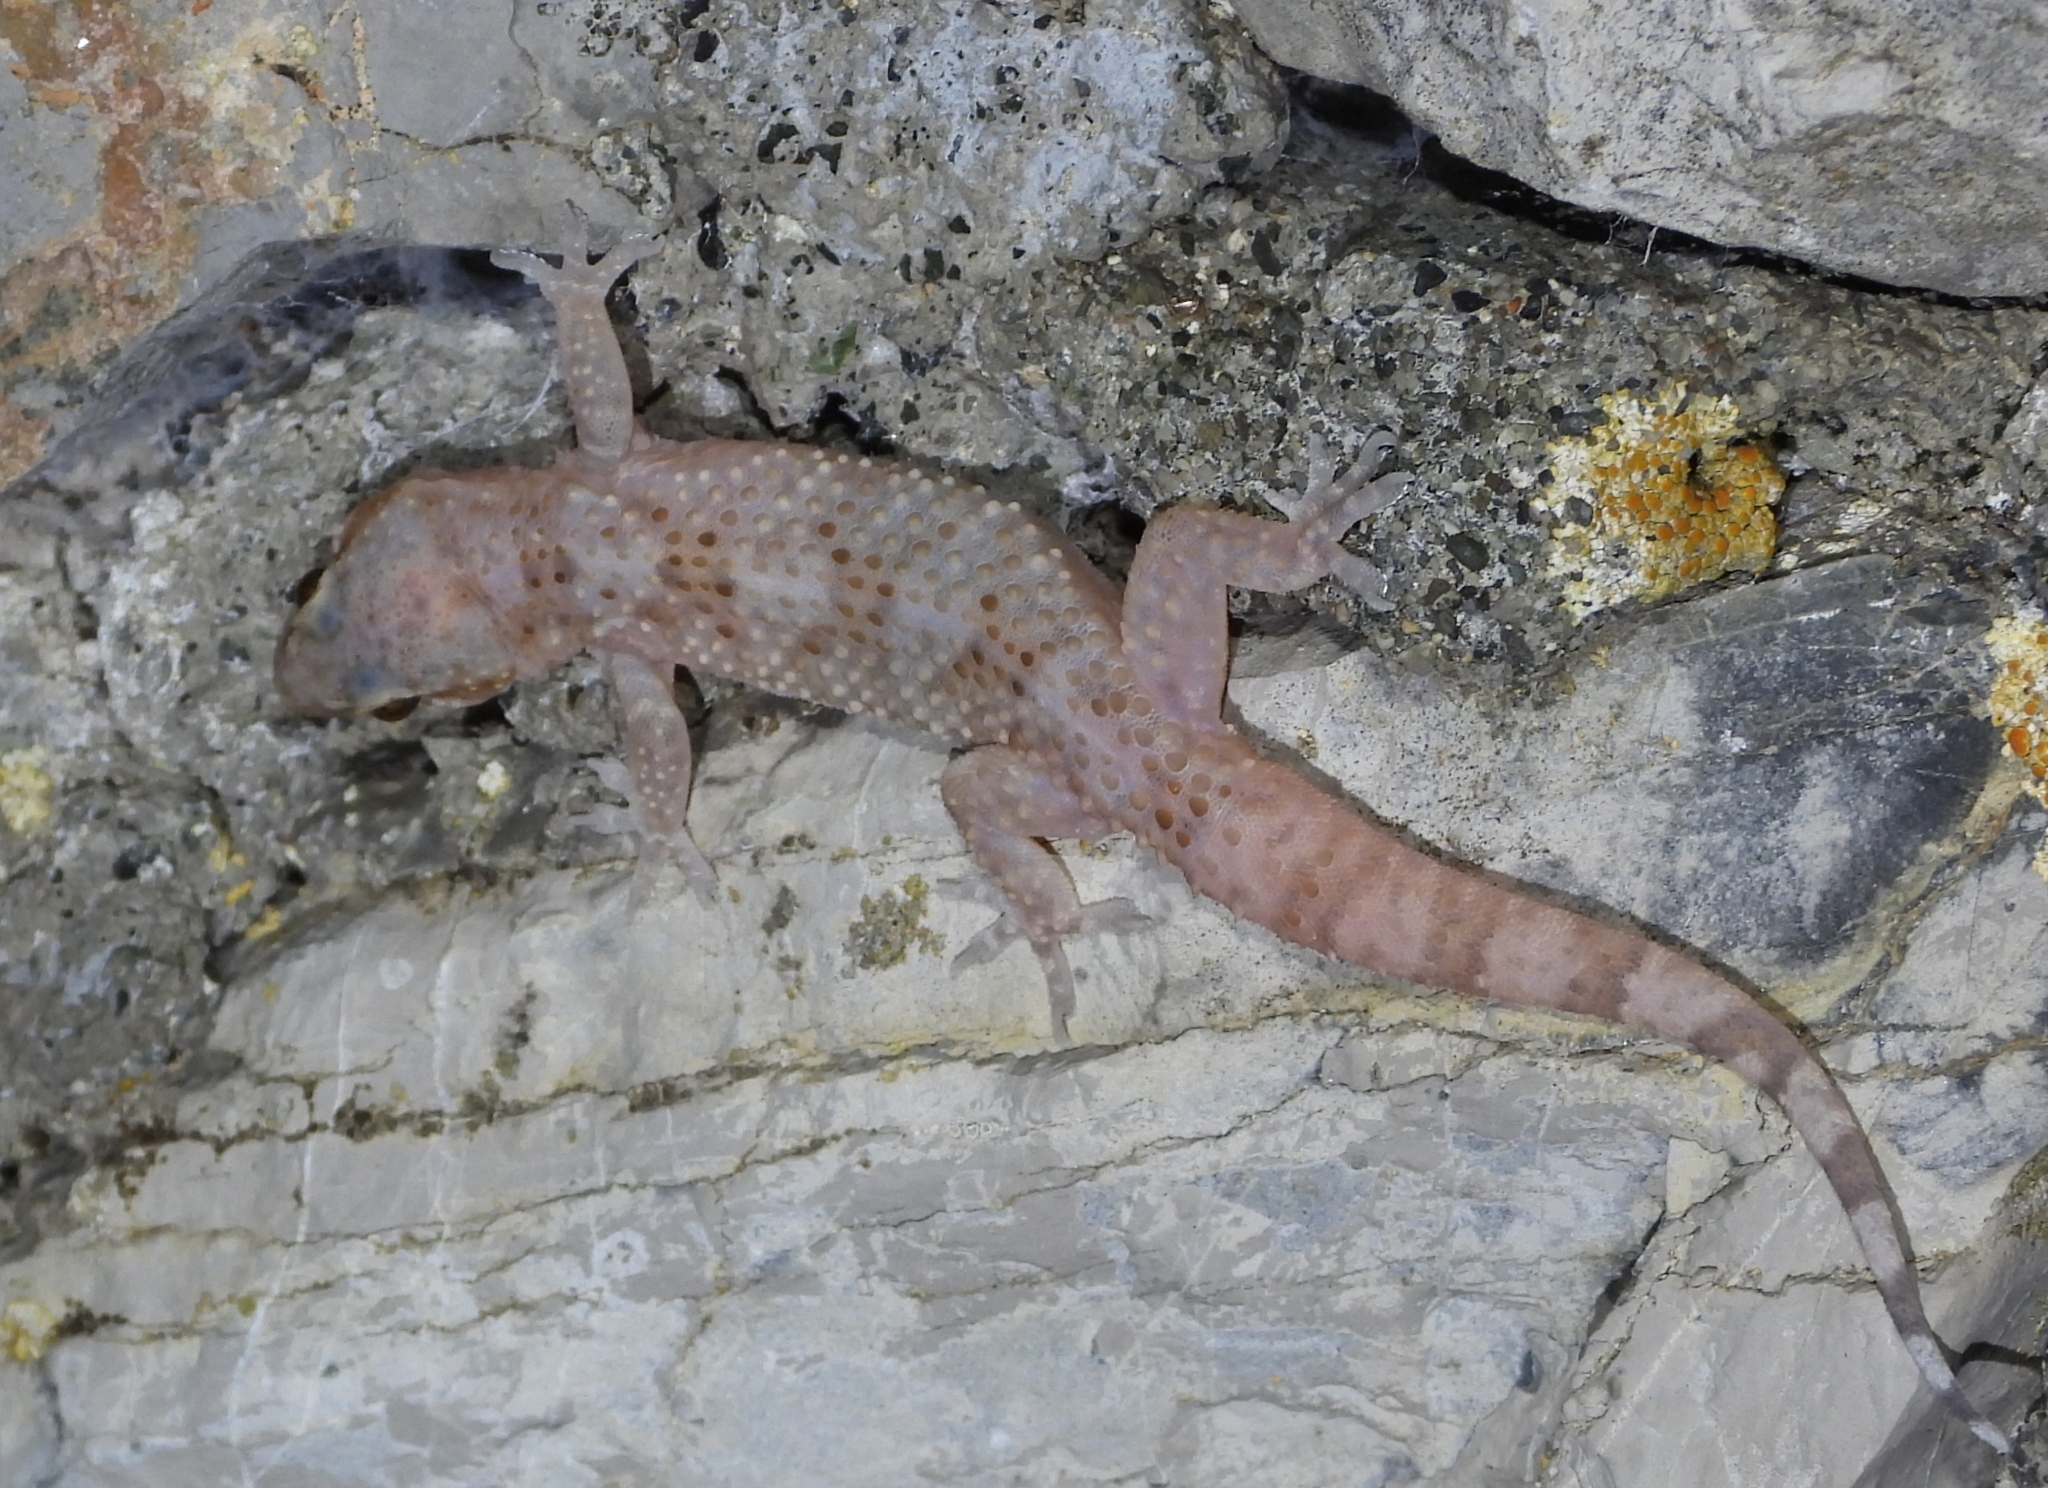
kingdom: Animalia
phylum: Chordata
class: Squamata
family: Gekkonidae
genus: Hemidactylus
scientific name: Hemidactylus turcicus
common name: Turkish gecko
